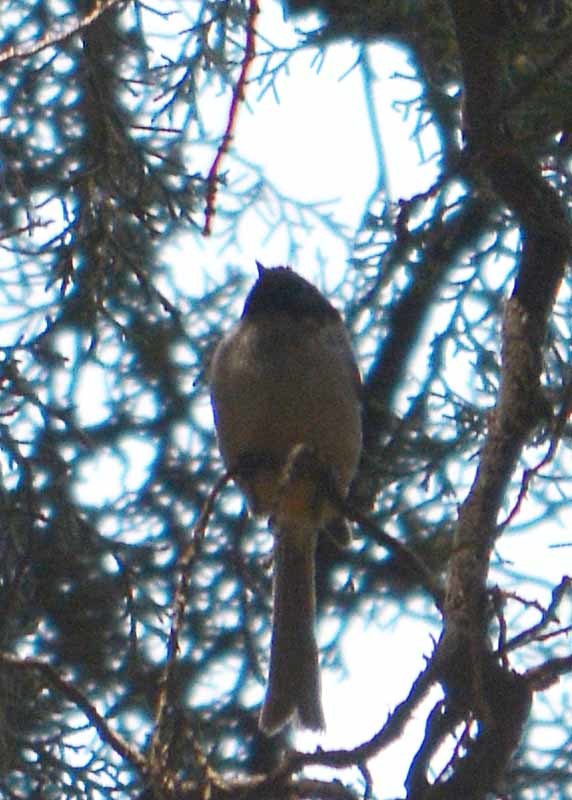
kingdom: Animalia
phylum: Chordata
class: Aves
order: Passeriformes
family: Aegithalidae
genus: Psaltriparus
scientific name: Psaltriparus minimus
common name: American bushtit
